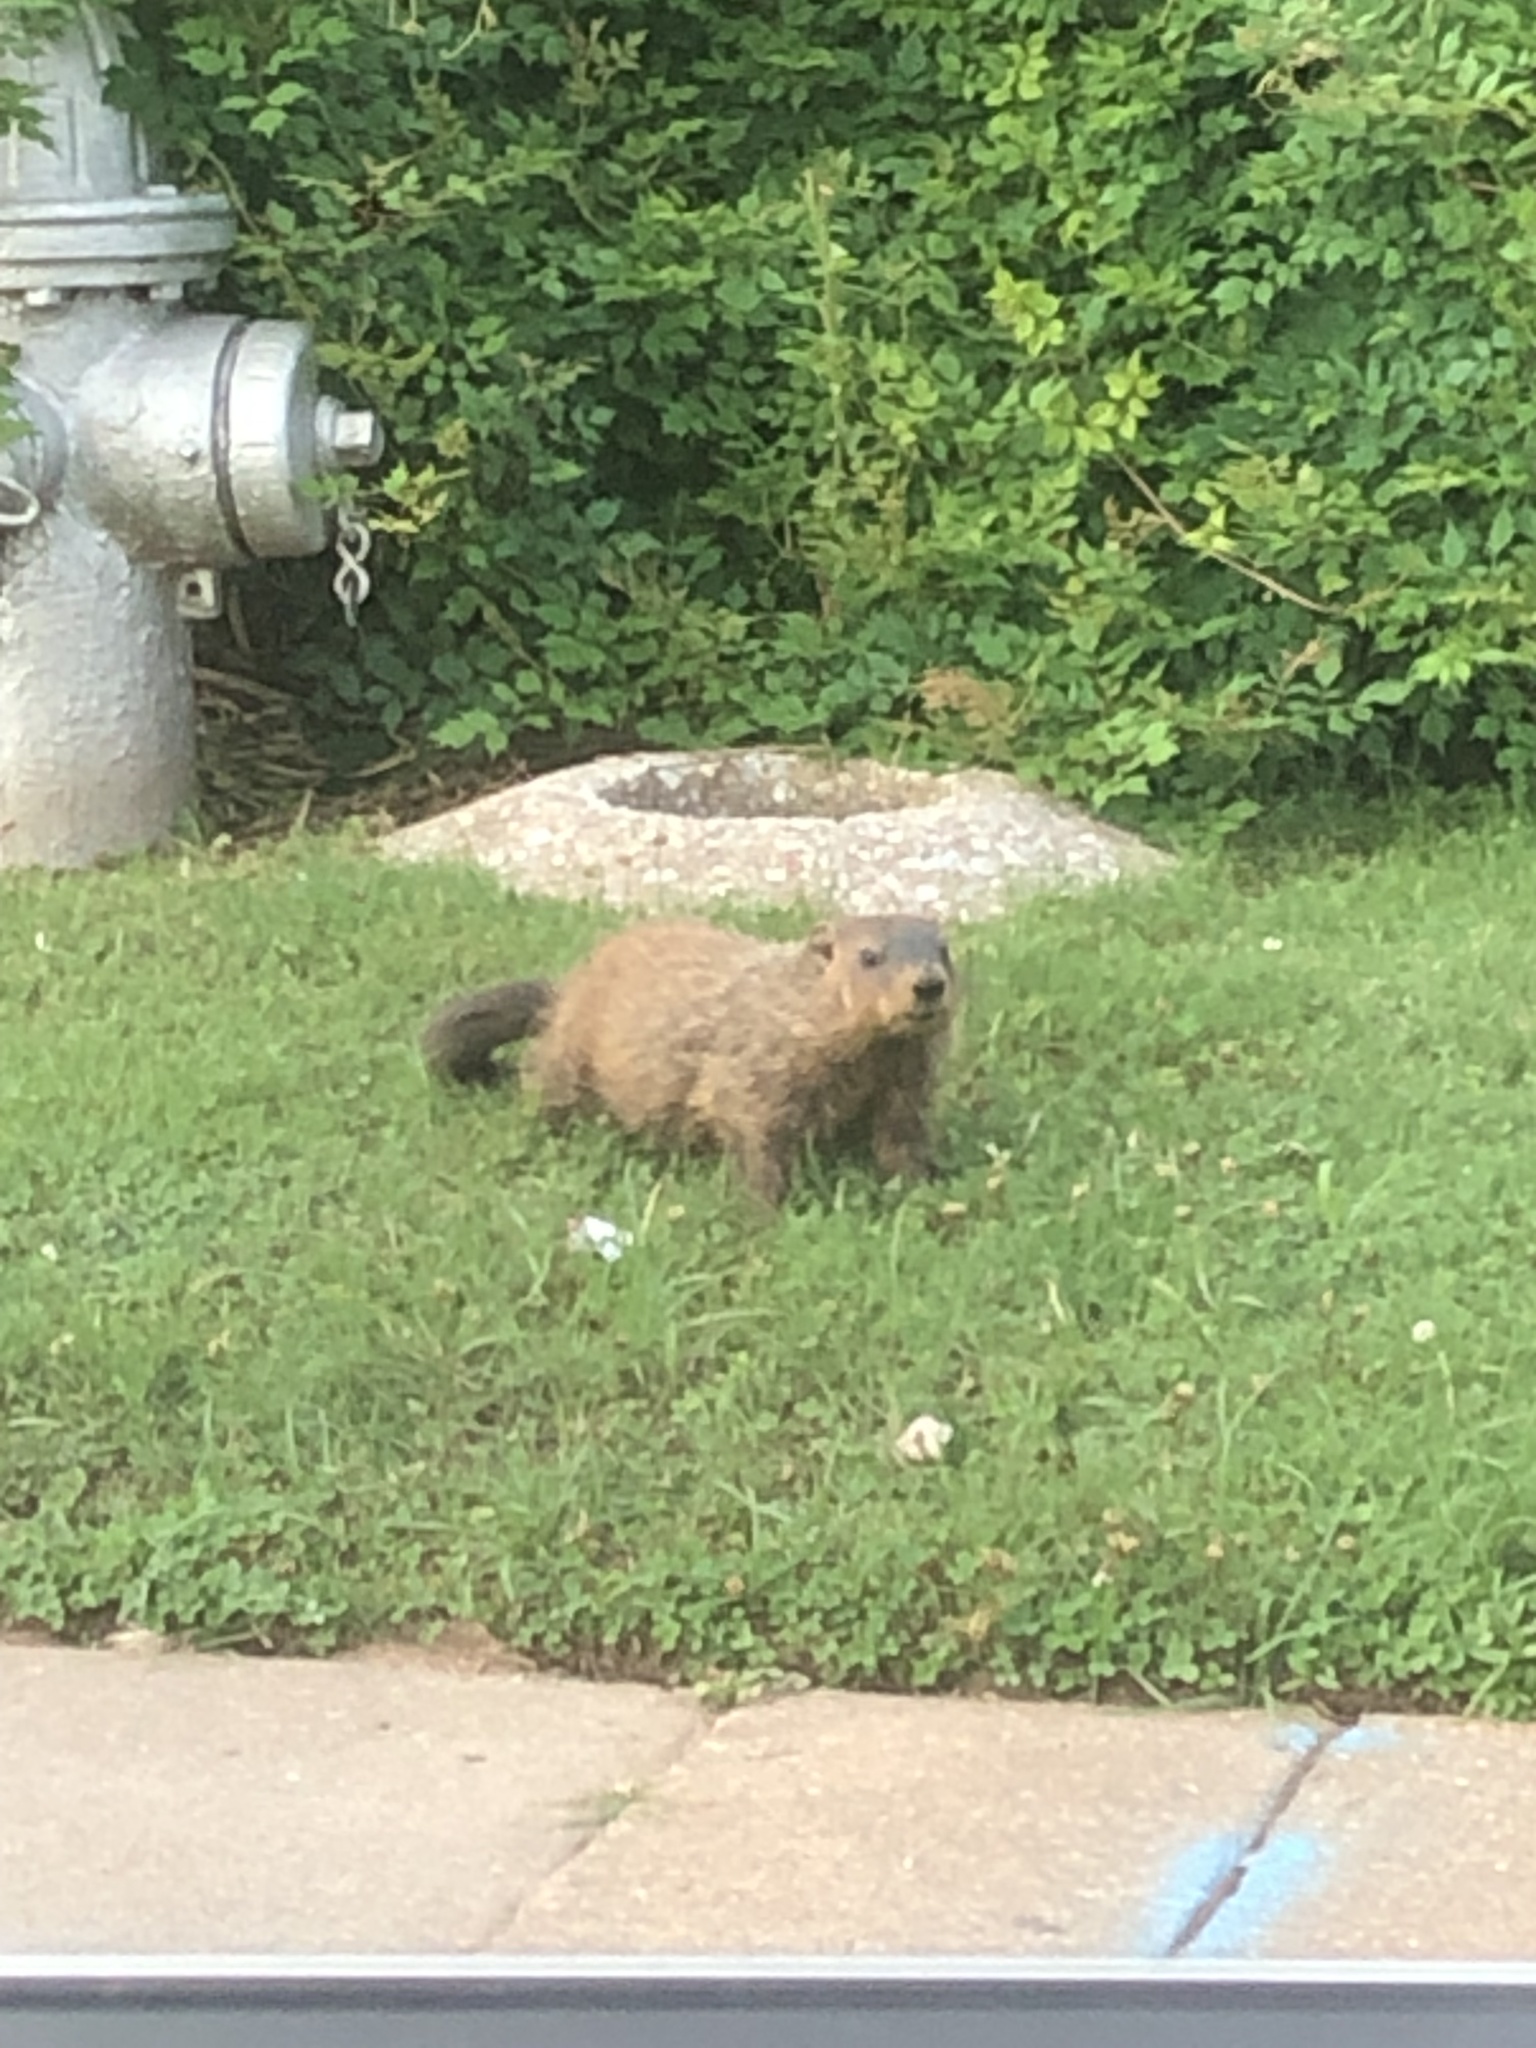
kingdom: Animalia
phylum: Chordata
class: Mammalia
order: Rodentia
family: Sciuridae
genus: Marmota
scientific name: Marmota monax
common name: Groundhog
